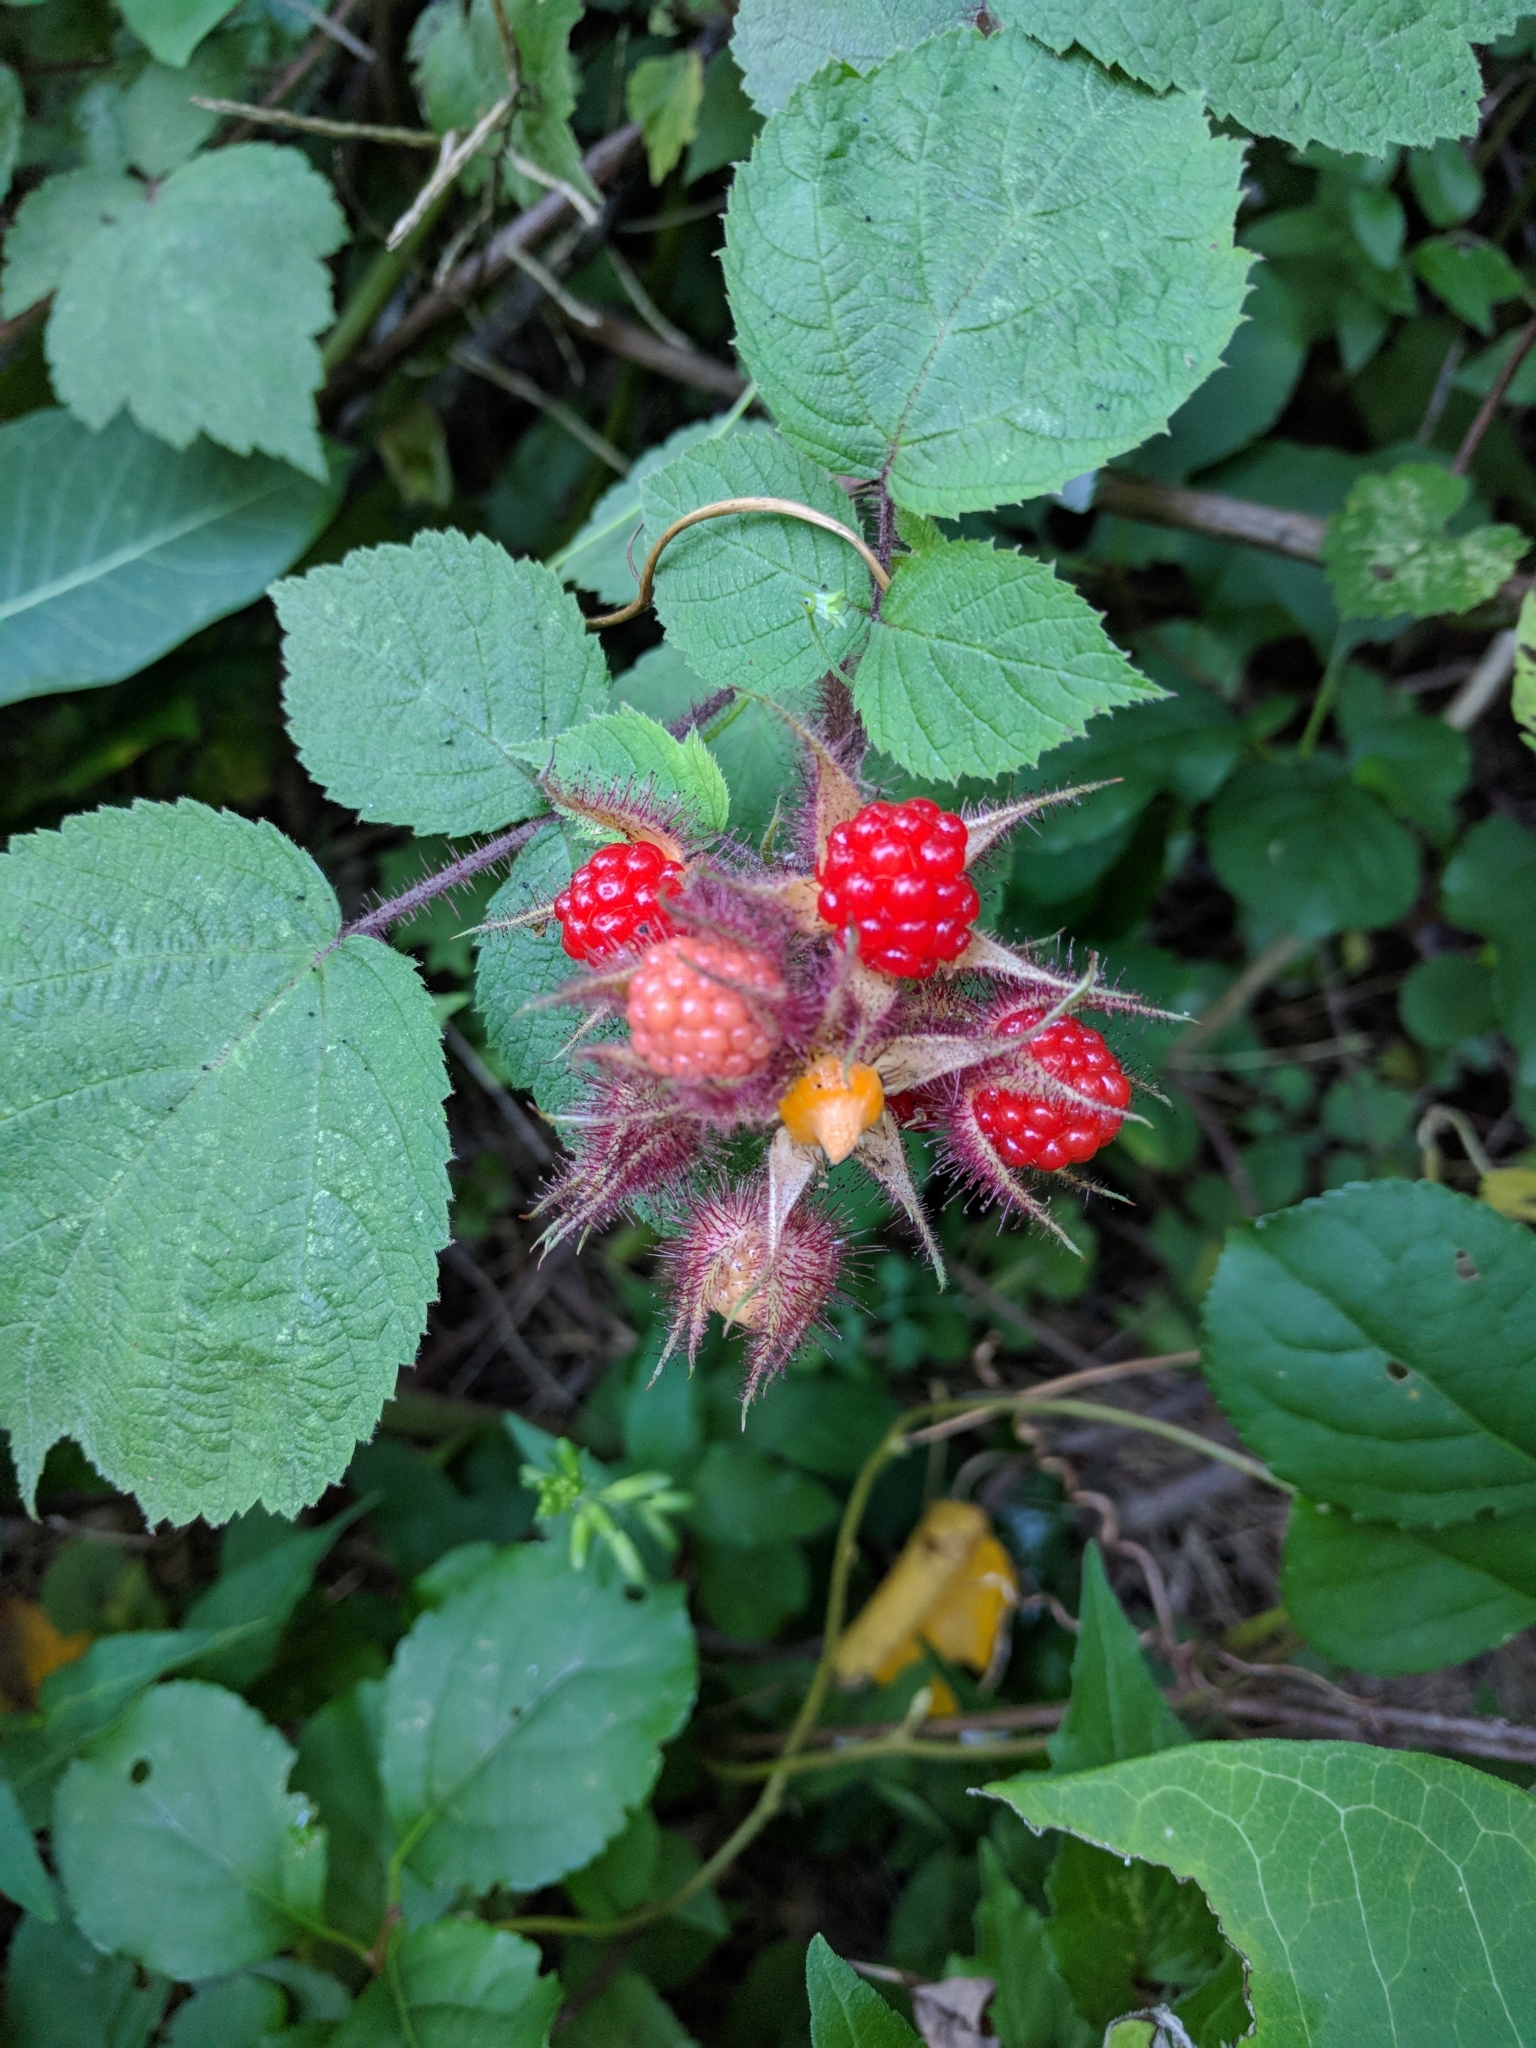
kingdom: Plantae
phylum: Tracheophyta
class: Magnoliopsida
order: Rosales
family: Rosaceae
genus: Rubus
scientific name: Rubus phoenicolasius
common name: Japanese wineberry
